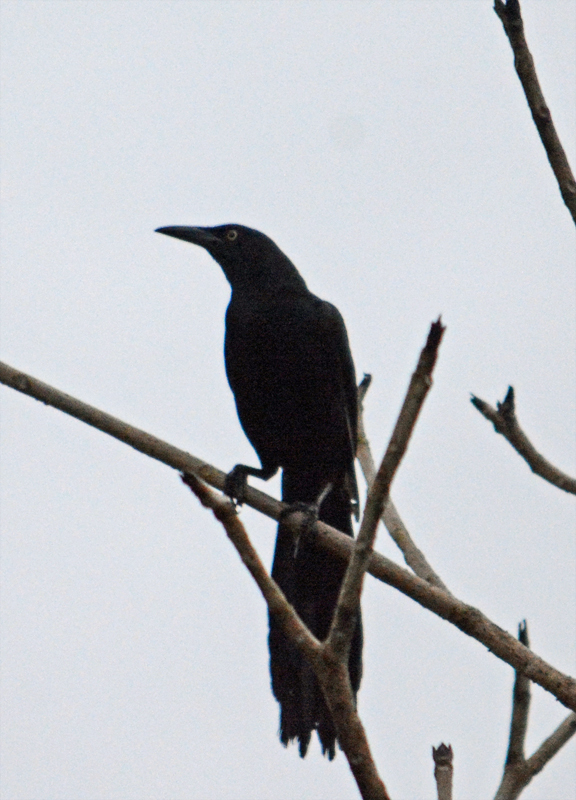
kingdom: Animalia
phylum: Chordata
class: Aves
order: Passeriformes
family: Icteridae
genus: Quiscalus
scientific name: Quiscalus mexicanus
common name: Great-tailed grackle
